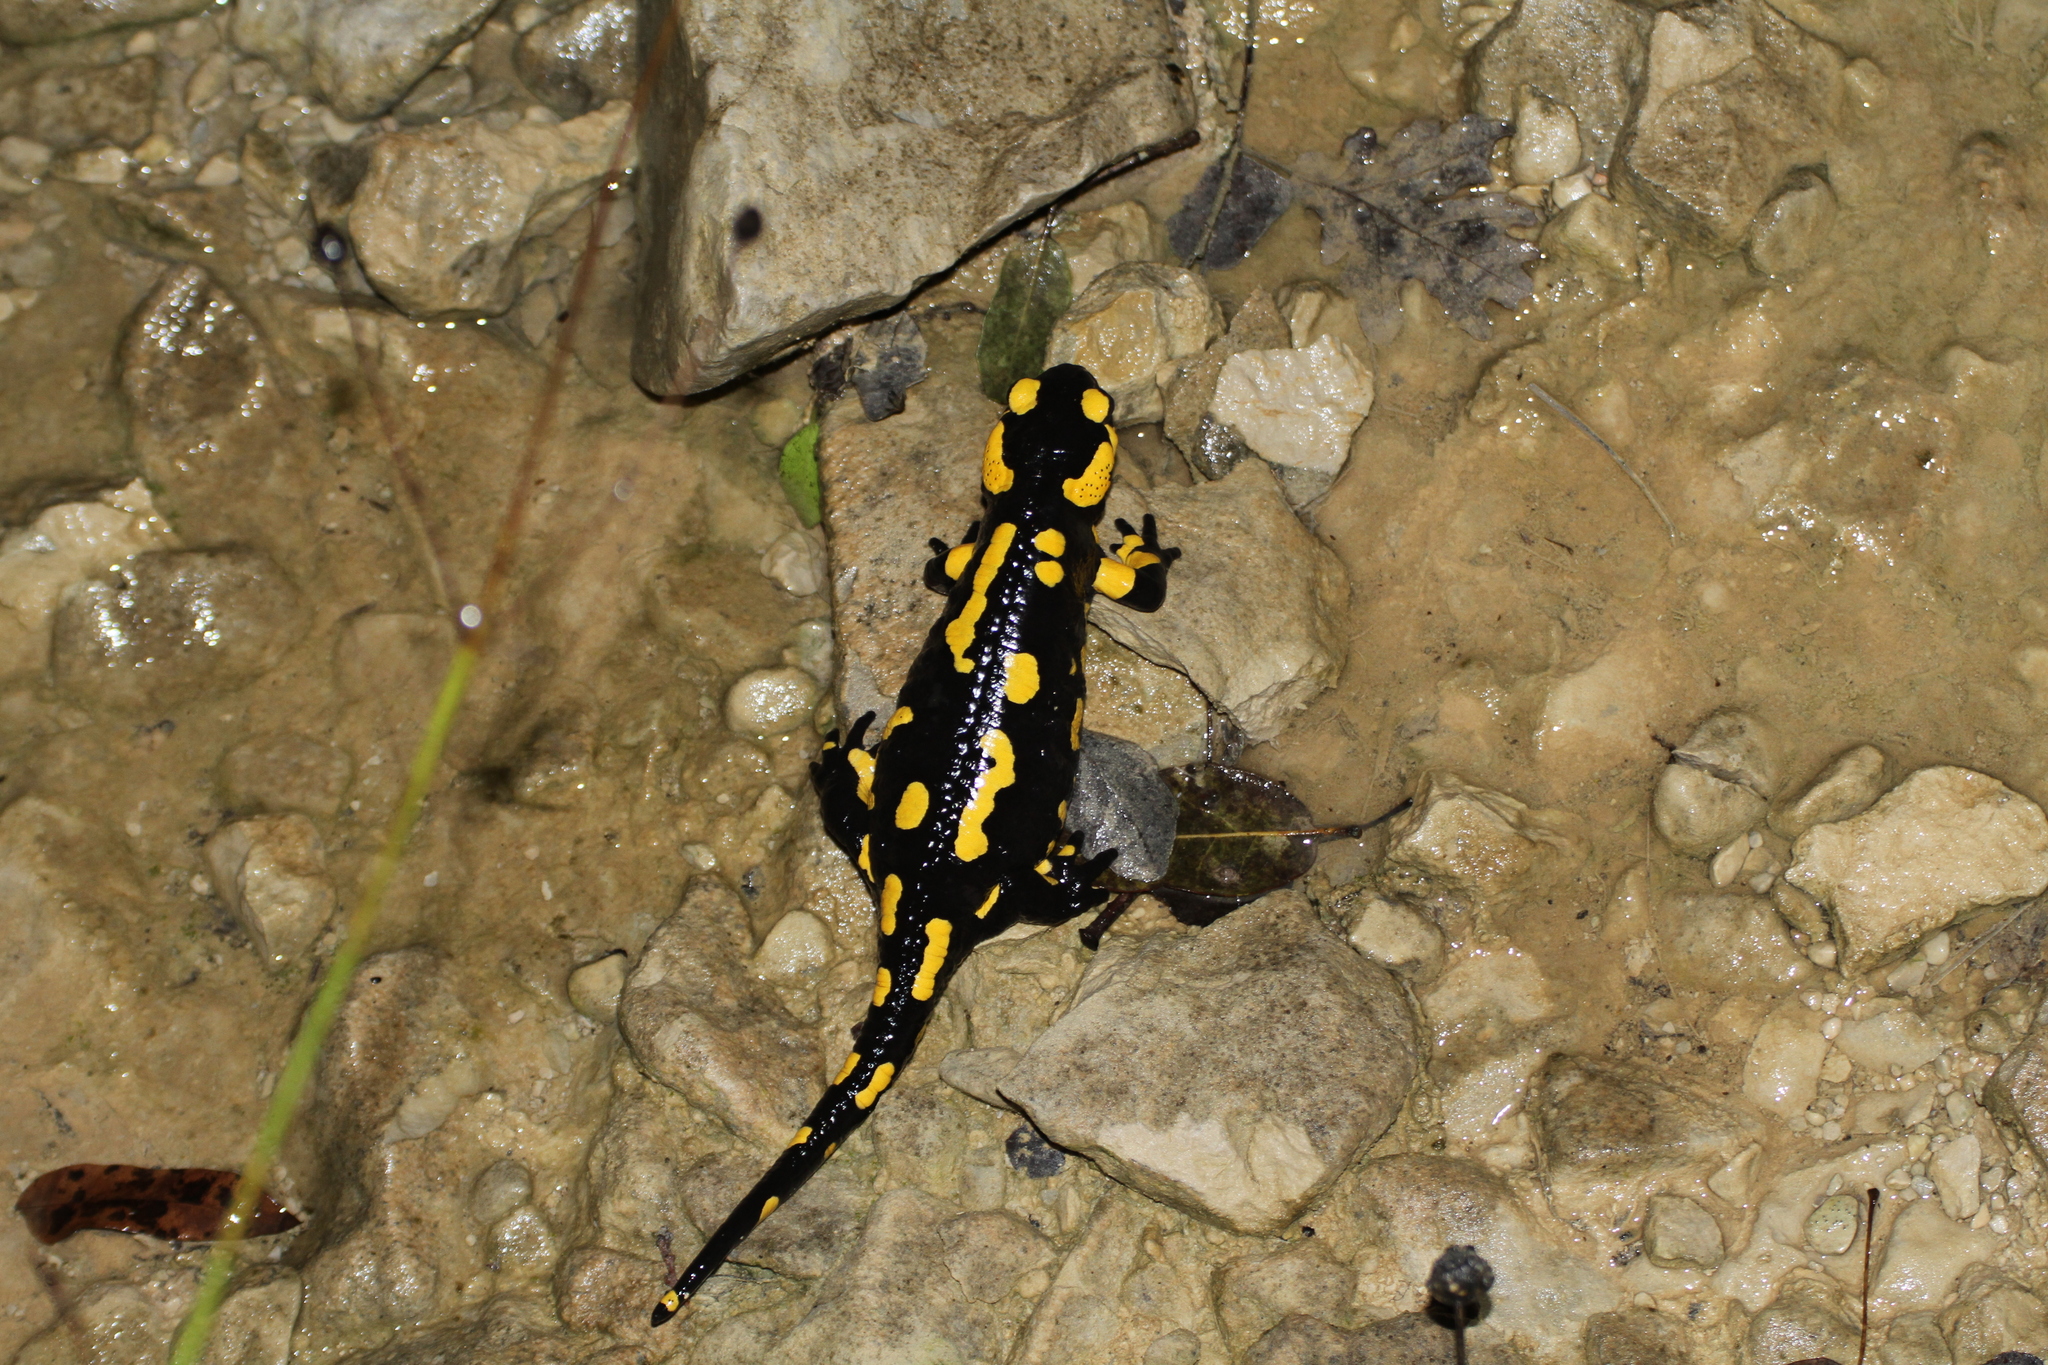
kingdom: Animalia
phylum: Chordata
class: Amphibia
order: Caudata
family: Salamandridae
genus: Salamandra
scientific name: Salamandra salamandra
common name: Fire salamander
